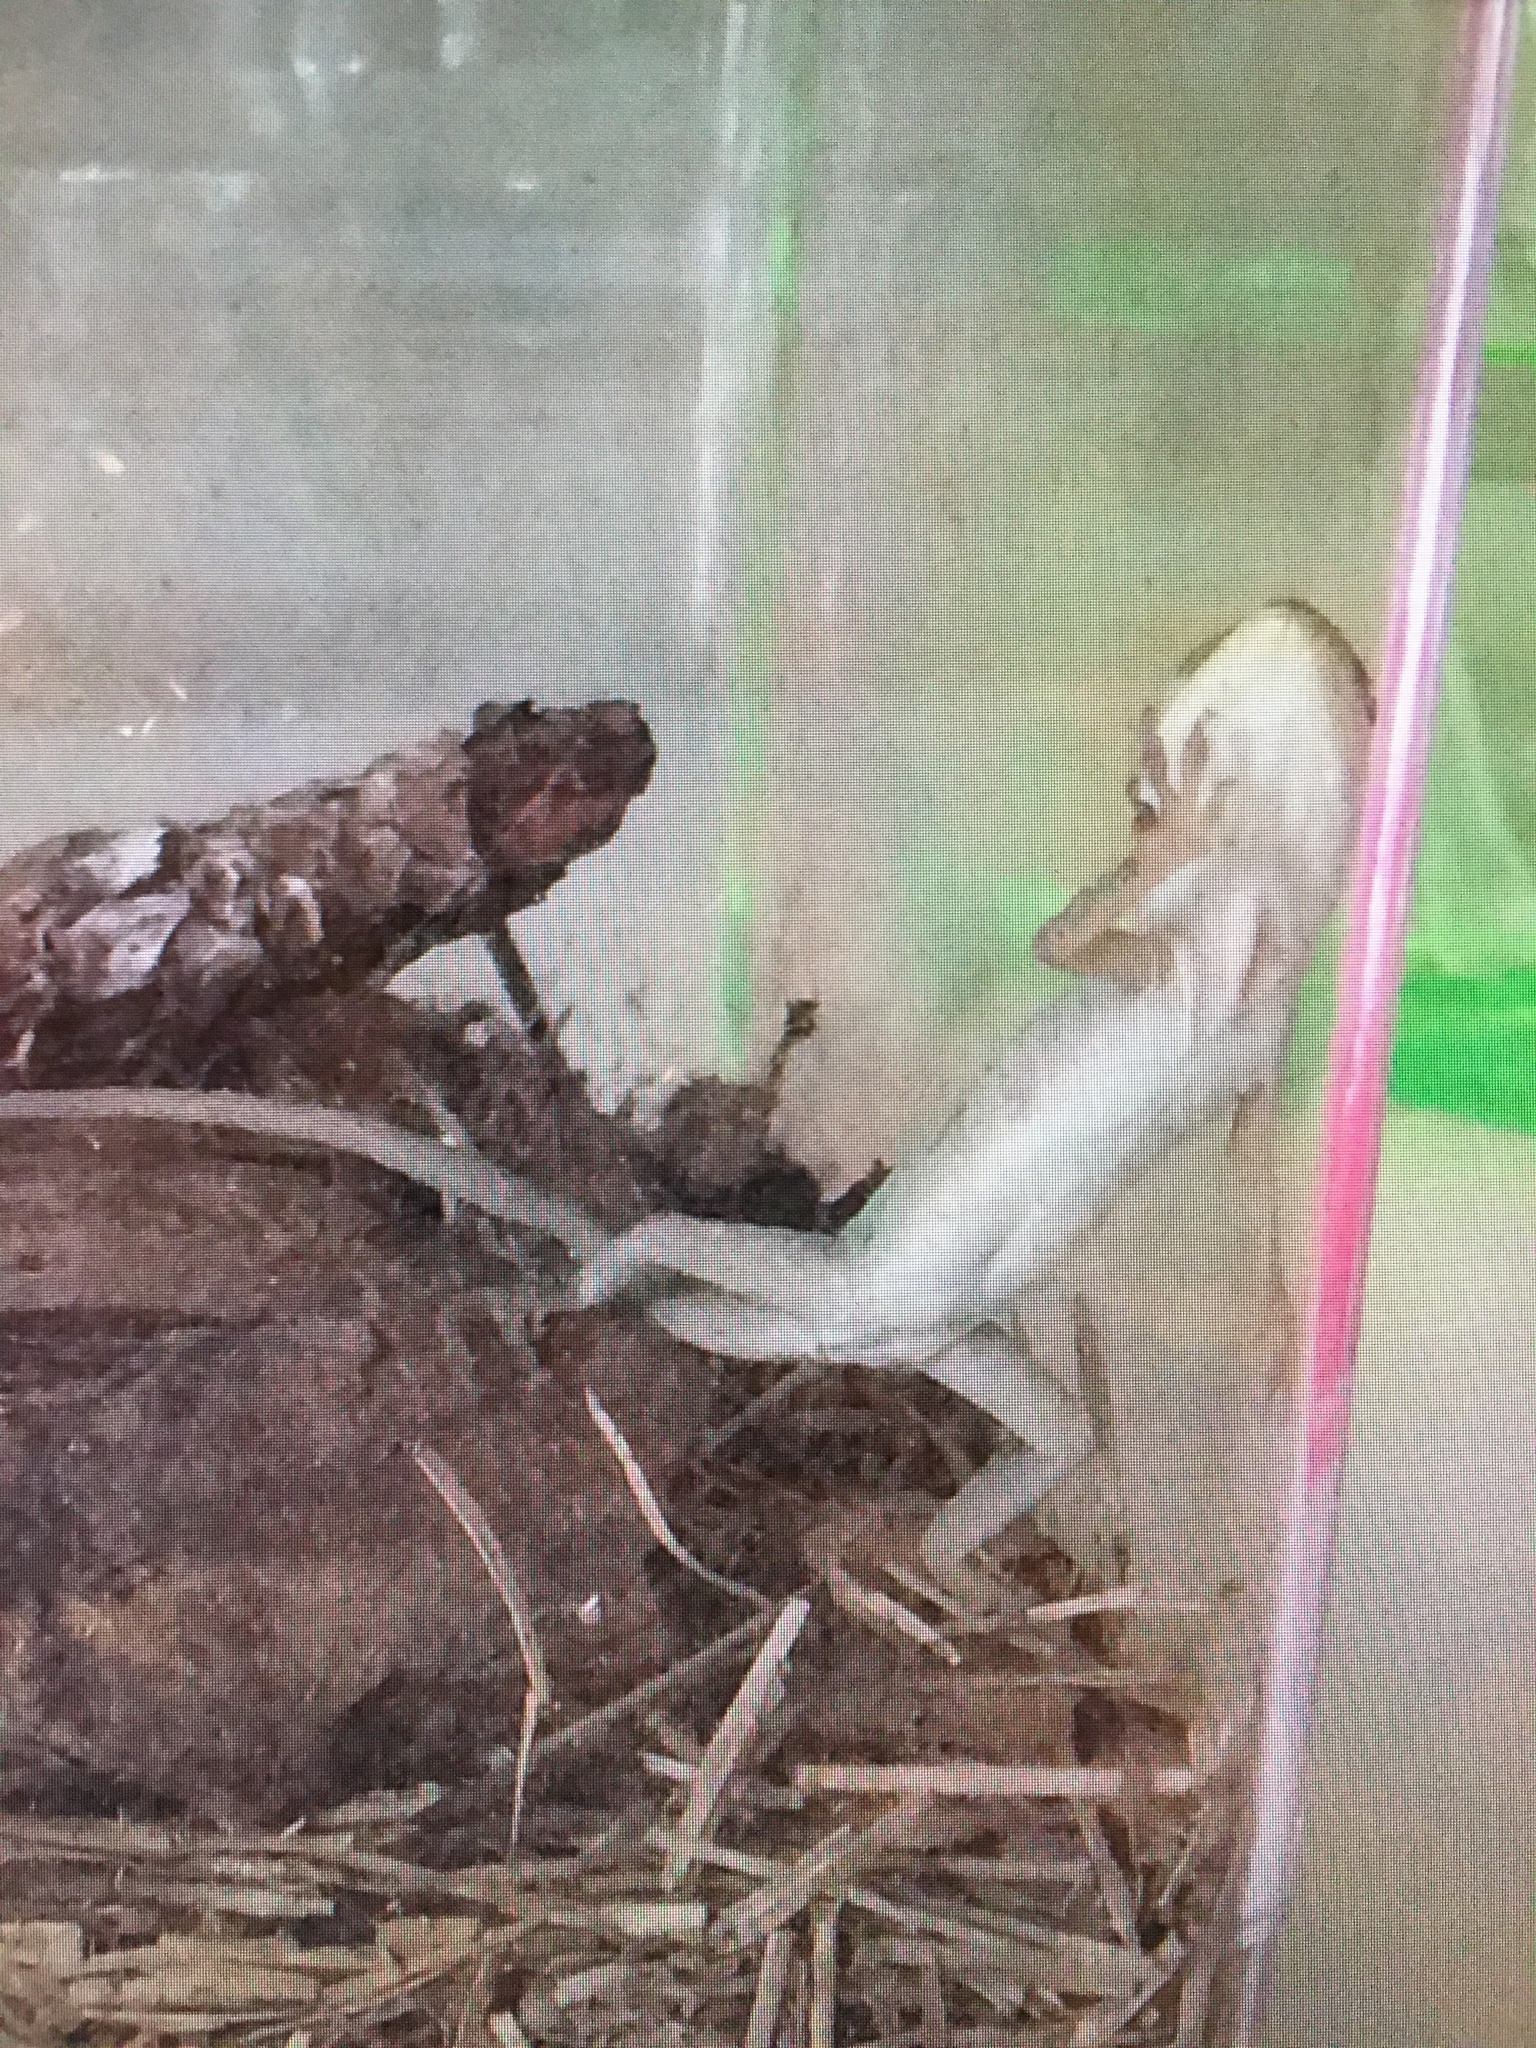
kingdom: Animalia
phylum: Chordata
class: Squamata
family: Dactyloidae
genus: Anolis
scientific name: Anolis carolinensis
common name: Green anole
